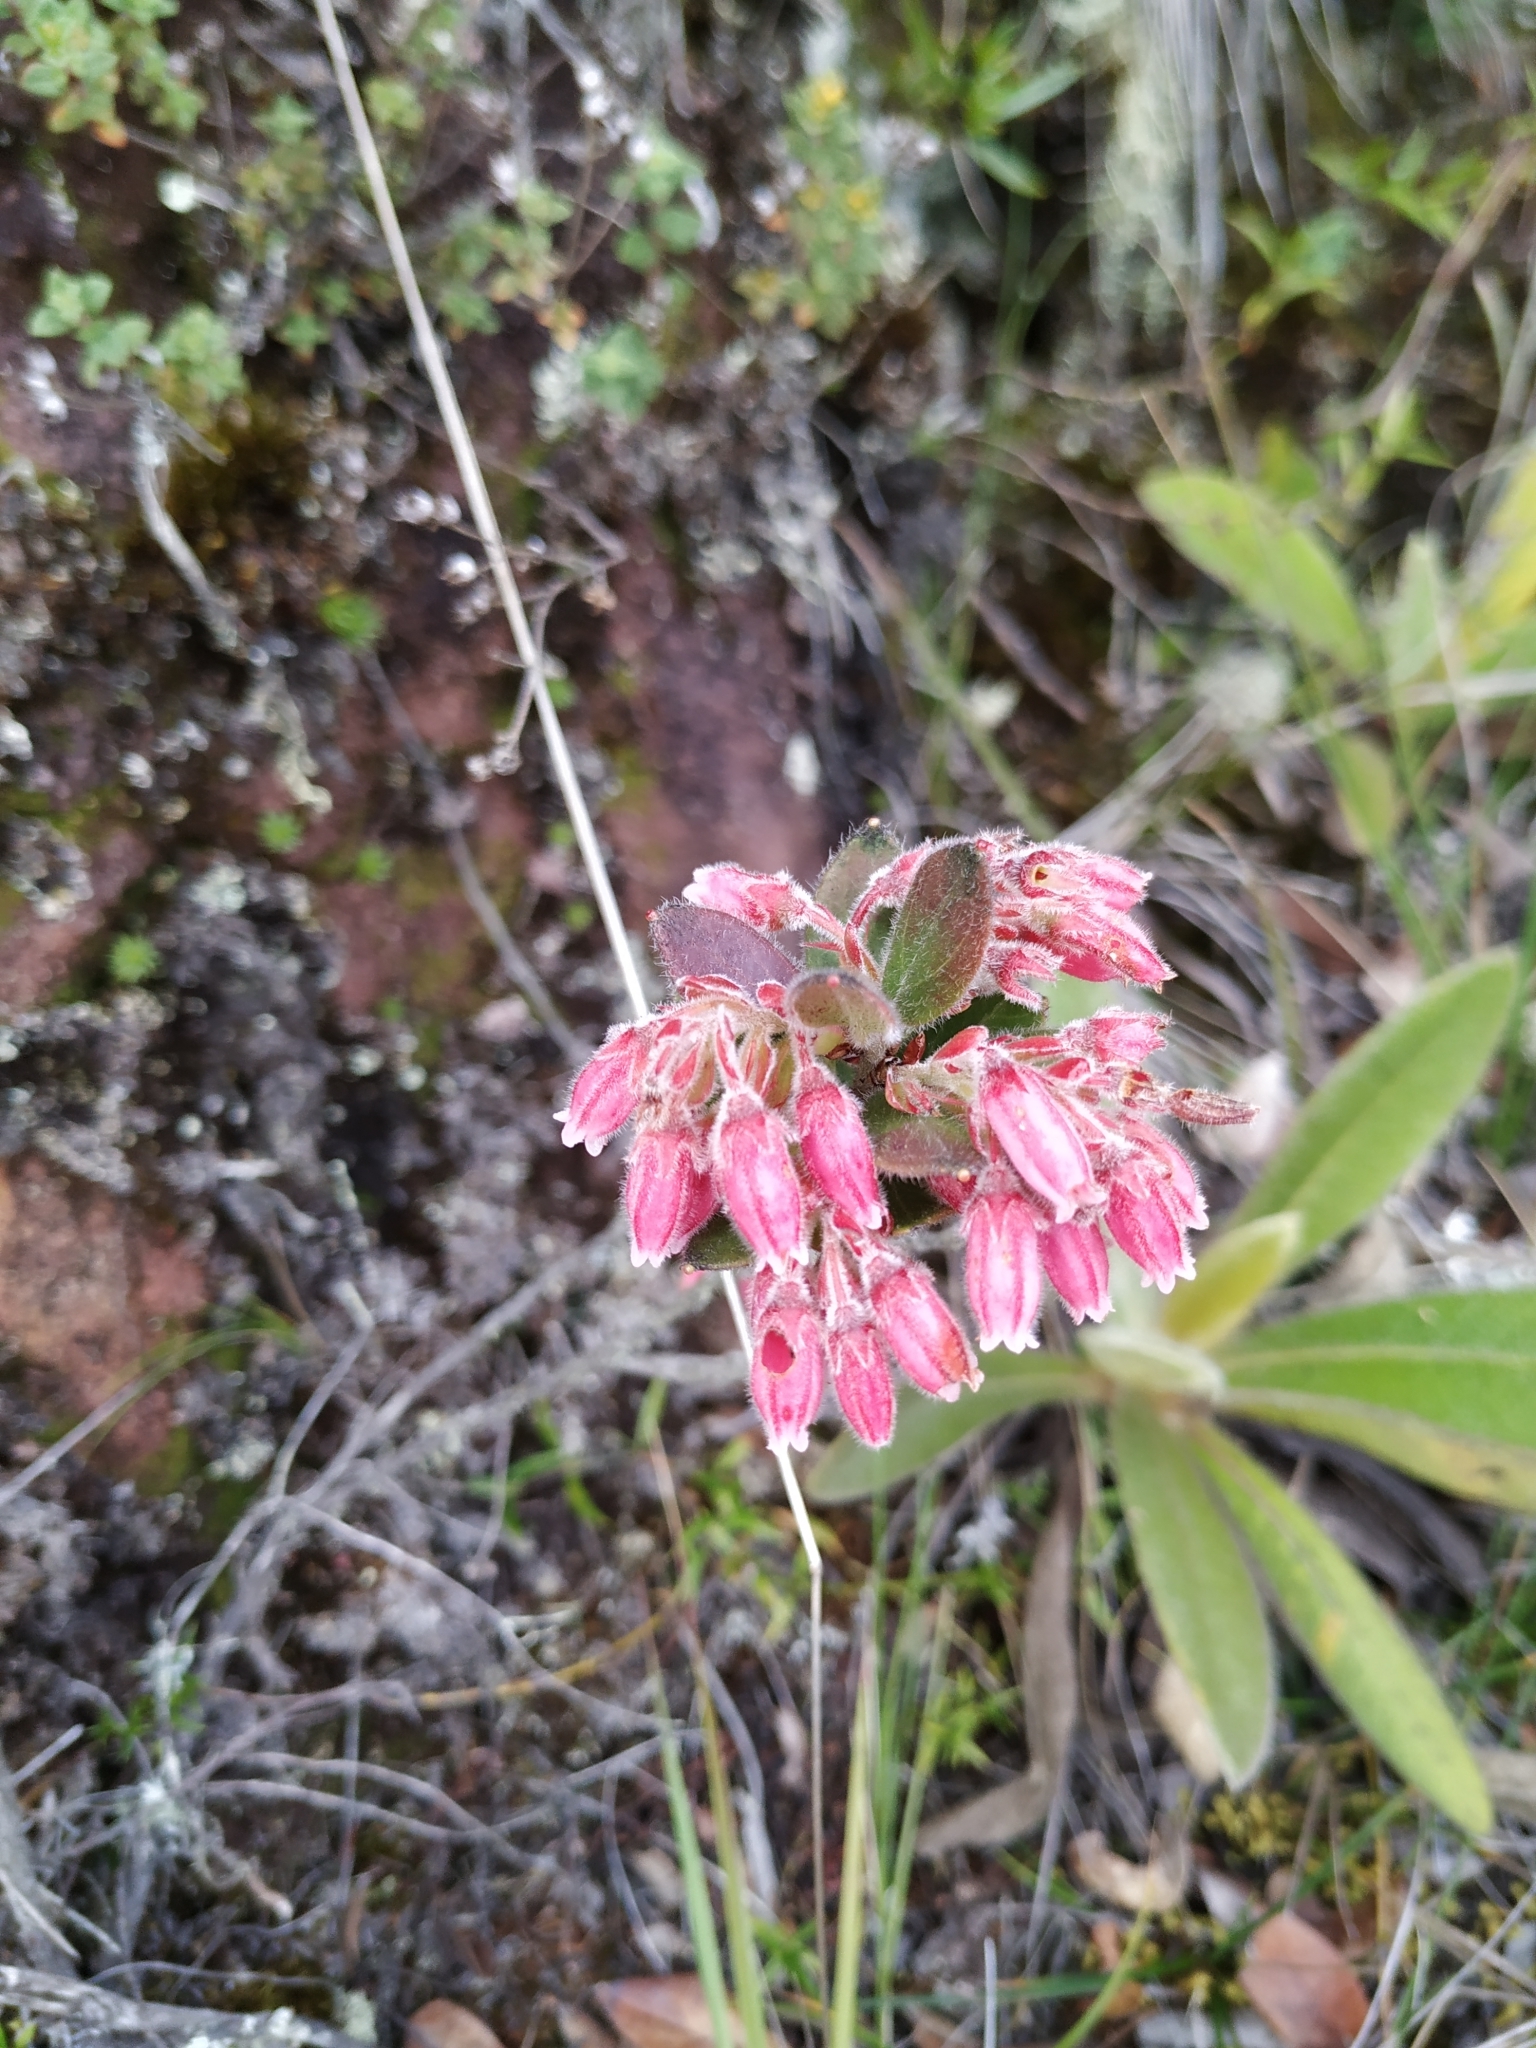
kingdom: Plantae
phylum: Tracheophyta
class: Magnoliopsida
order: Ericales
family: Ericaceae
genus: Gaylussacia
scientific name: Gaylussacia buxifolia
